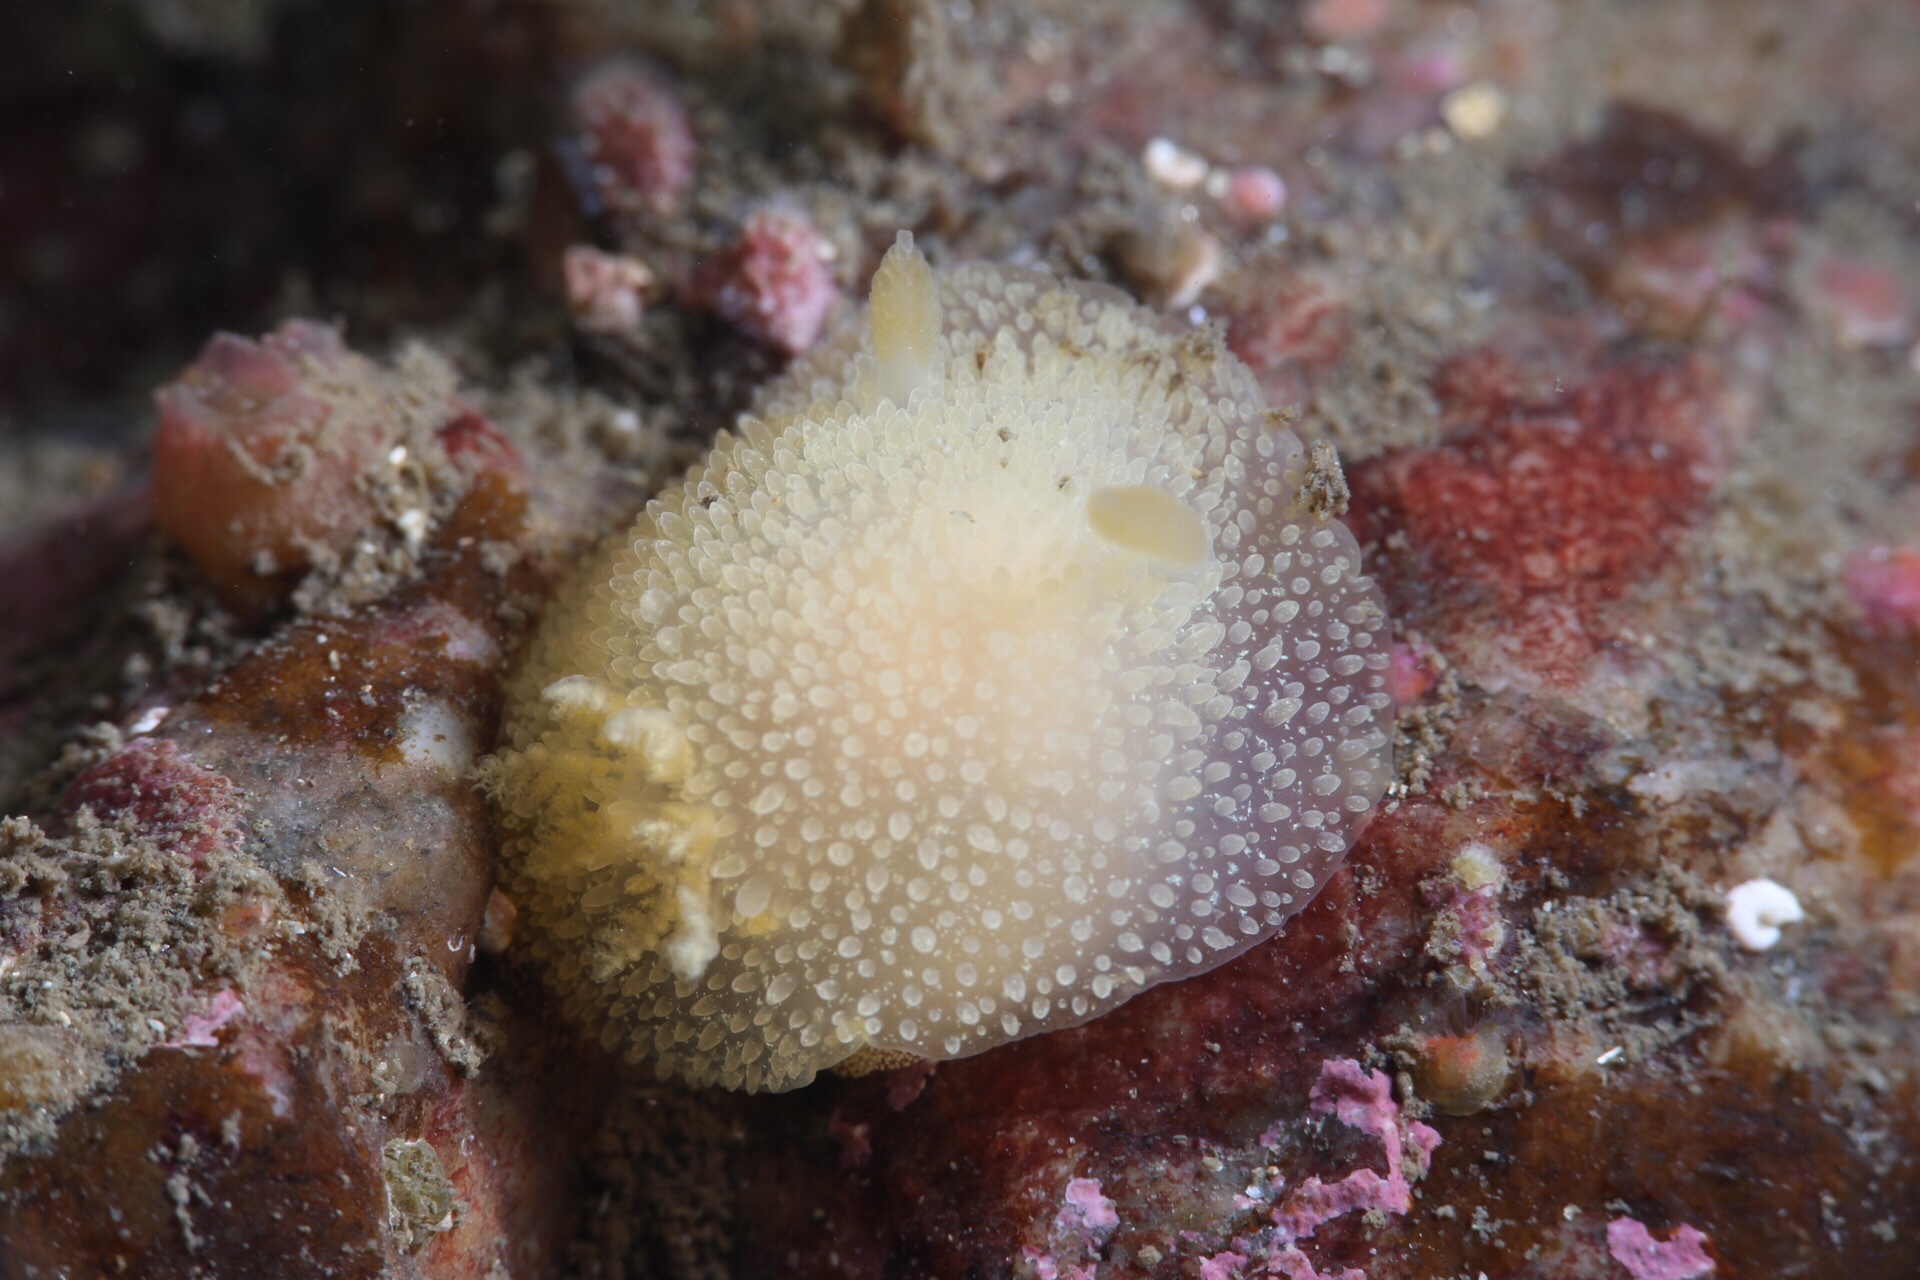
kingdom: Animalia
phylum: Mollusca
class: Gastropoda
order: Nudibranchia
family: Onchidorididae
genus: Acanthodoris
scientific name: Acanthodoris pilosa
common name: Hairy spiny doris
